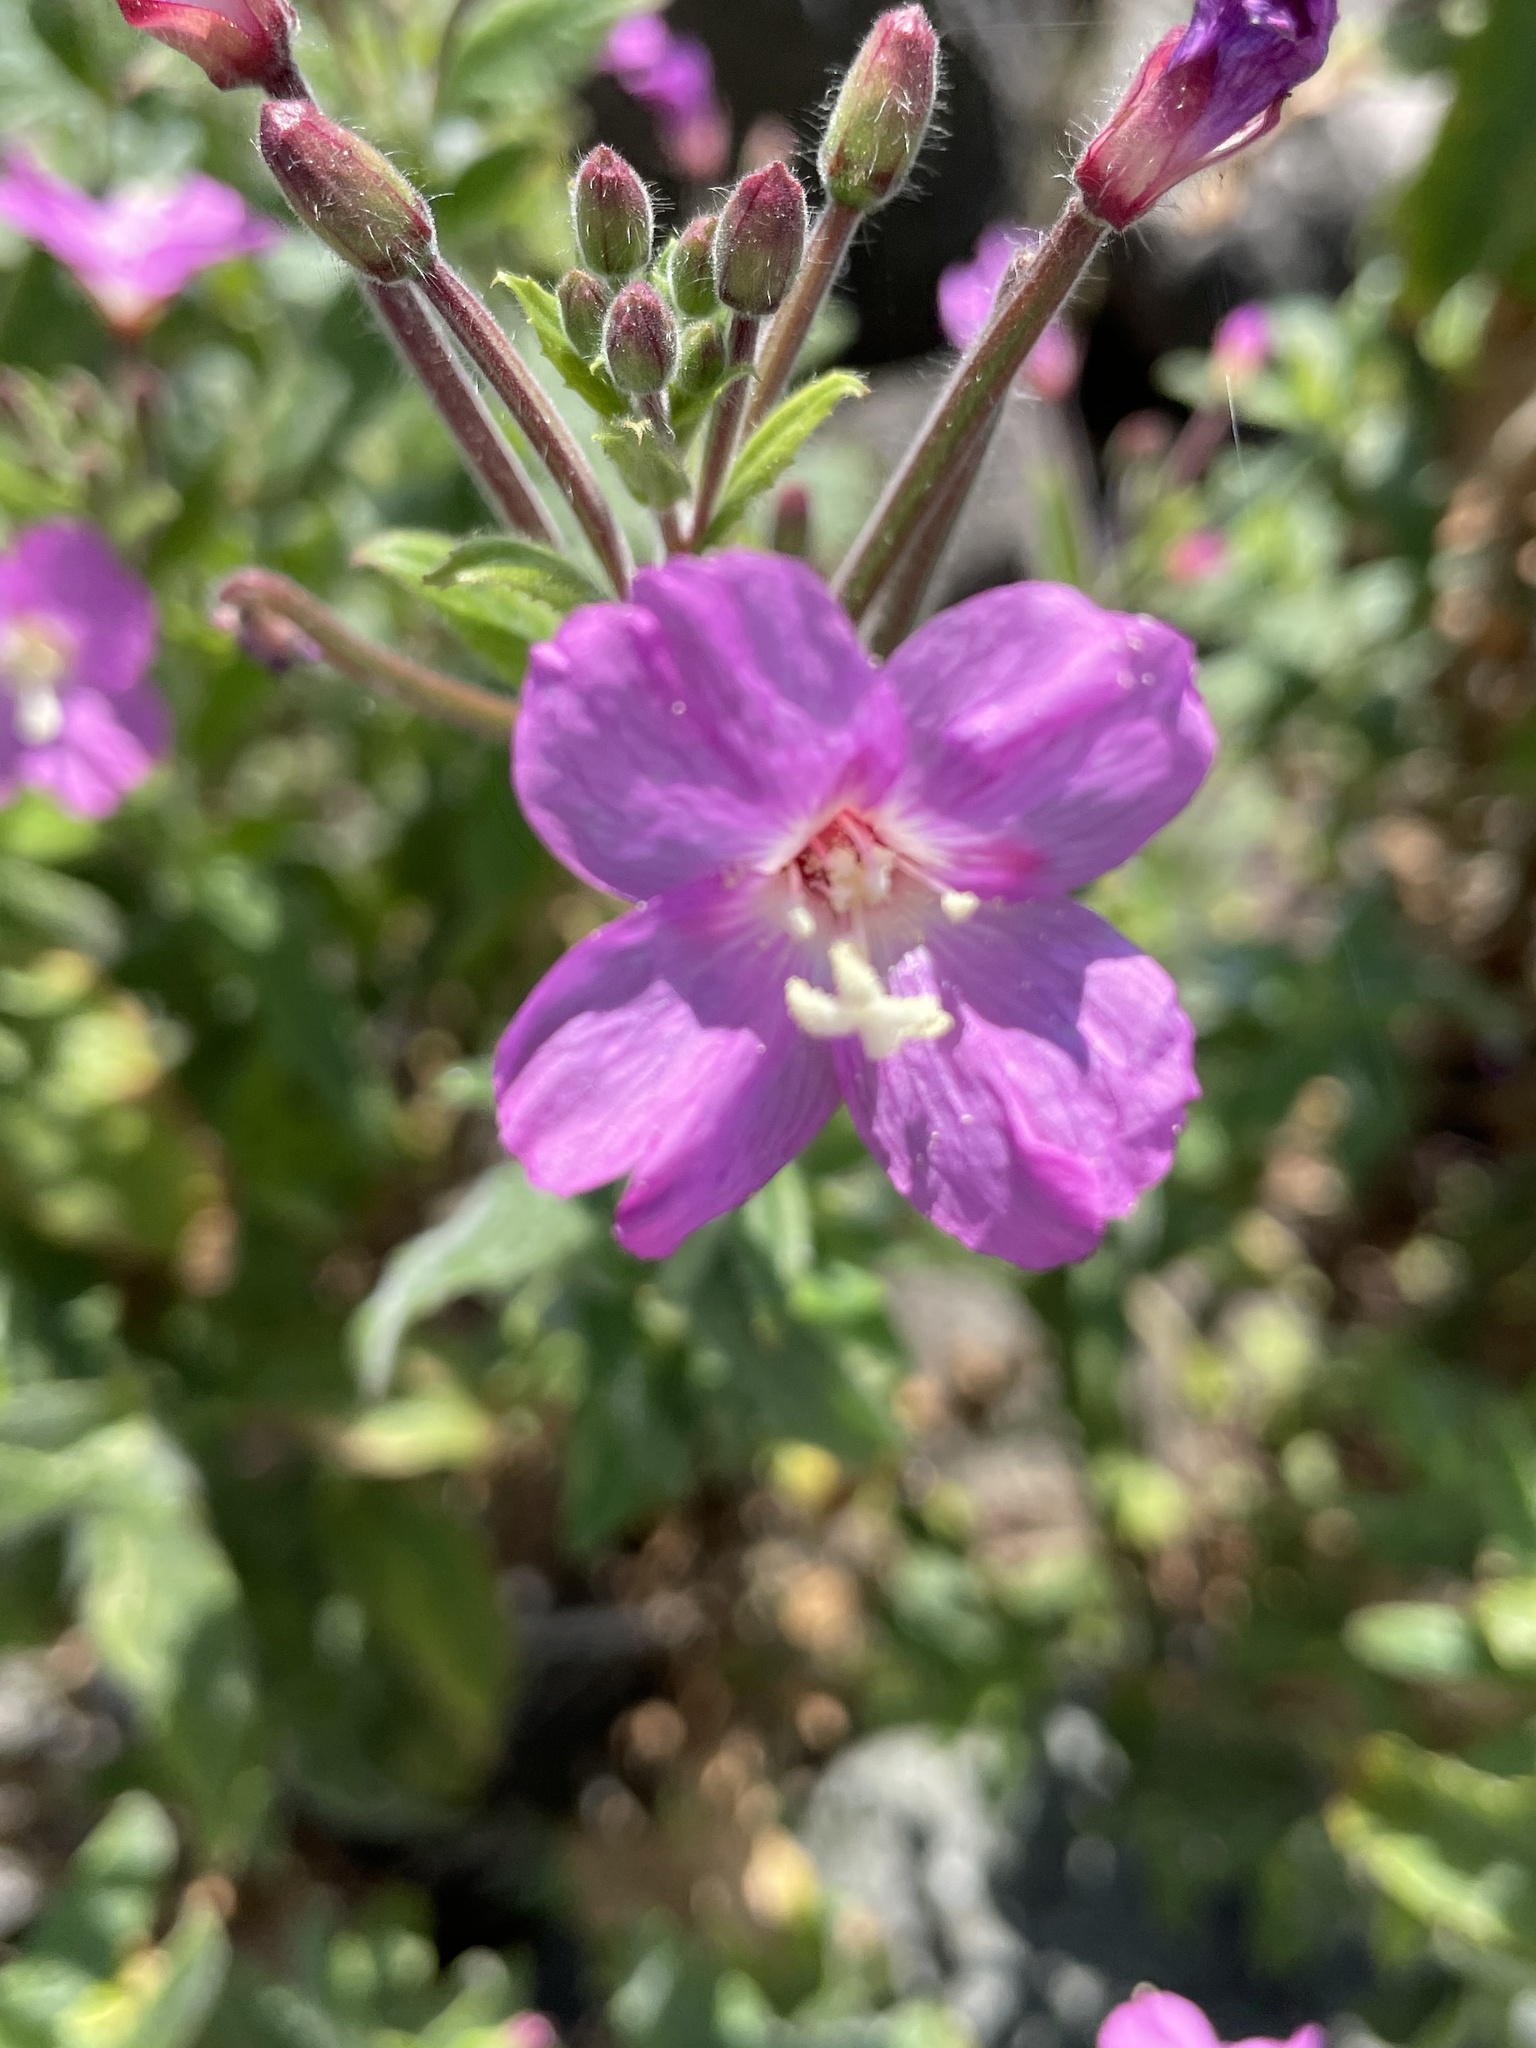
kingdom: Plantae
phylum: Tracheophyta
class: Magnoliopsida
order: Myrtales
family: Onagraceae
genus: Epilobium
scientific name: Epilobium hirsutum
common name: Great willowherb
